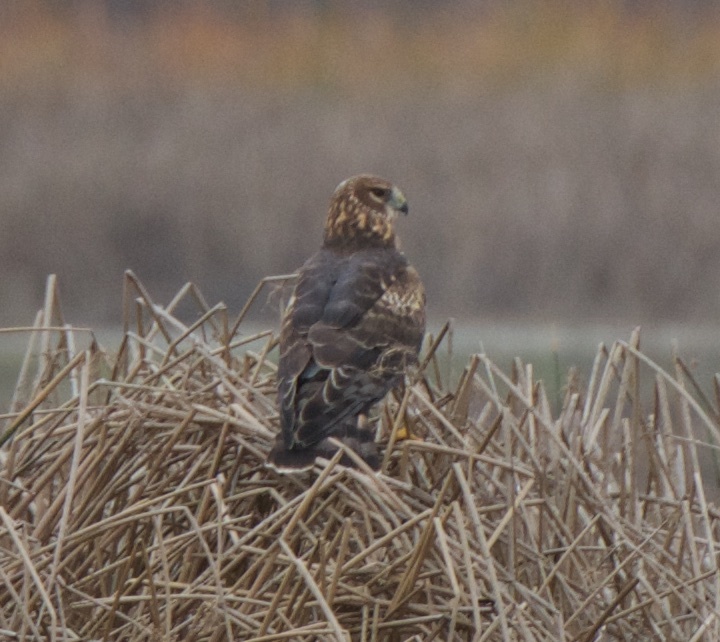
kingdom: Animalia
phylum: Chordata
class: Aves
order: Accipitriformes
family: Accipitridae
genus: Circus
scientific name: Circus cyaneus
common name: Hen harrier
